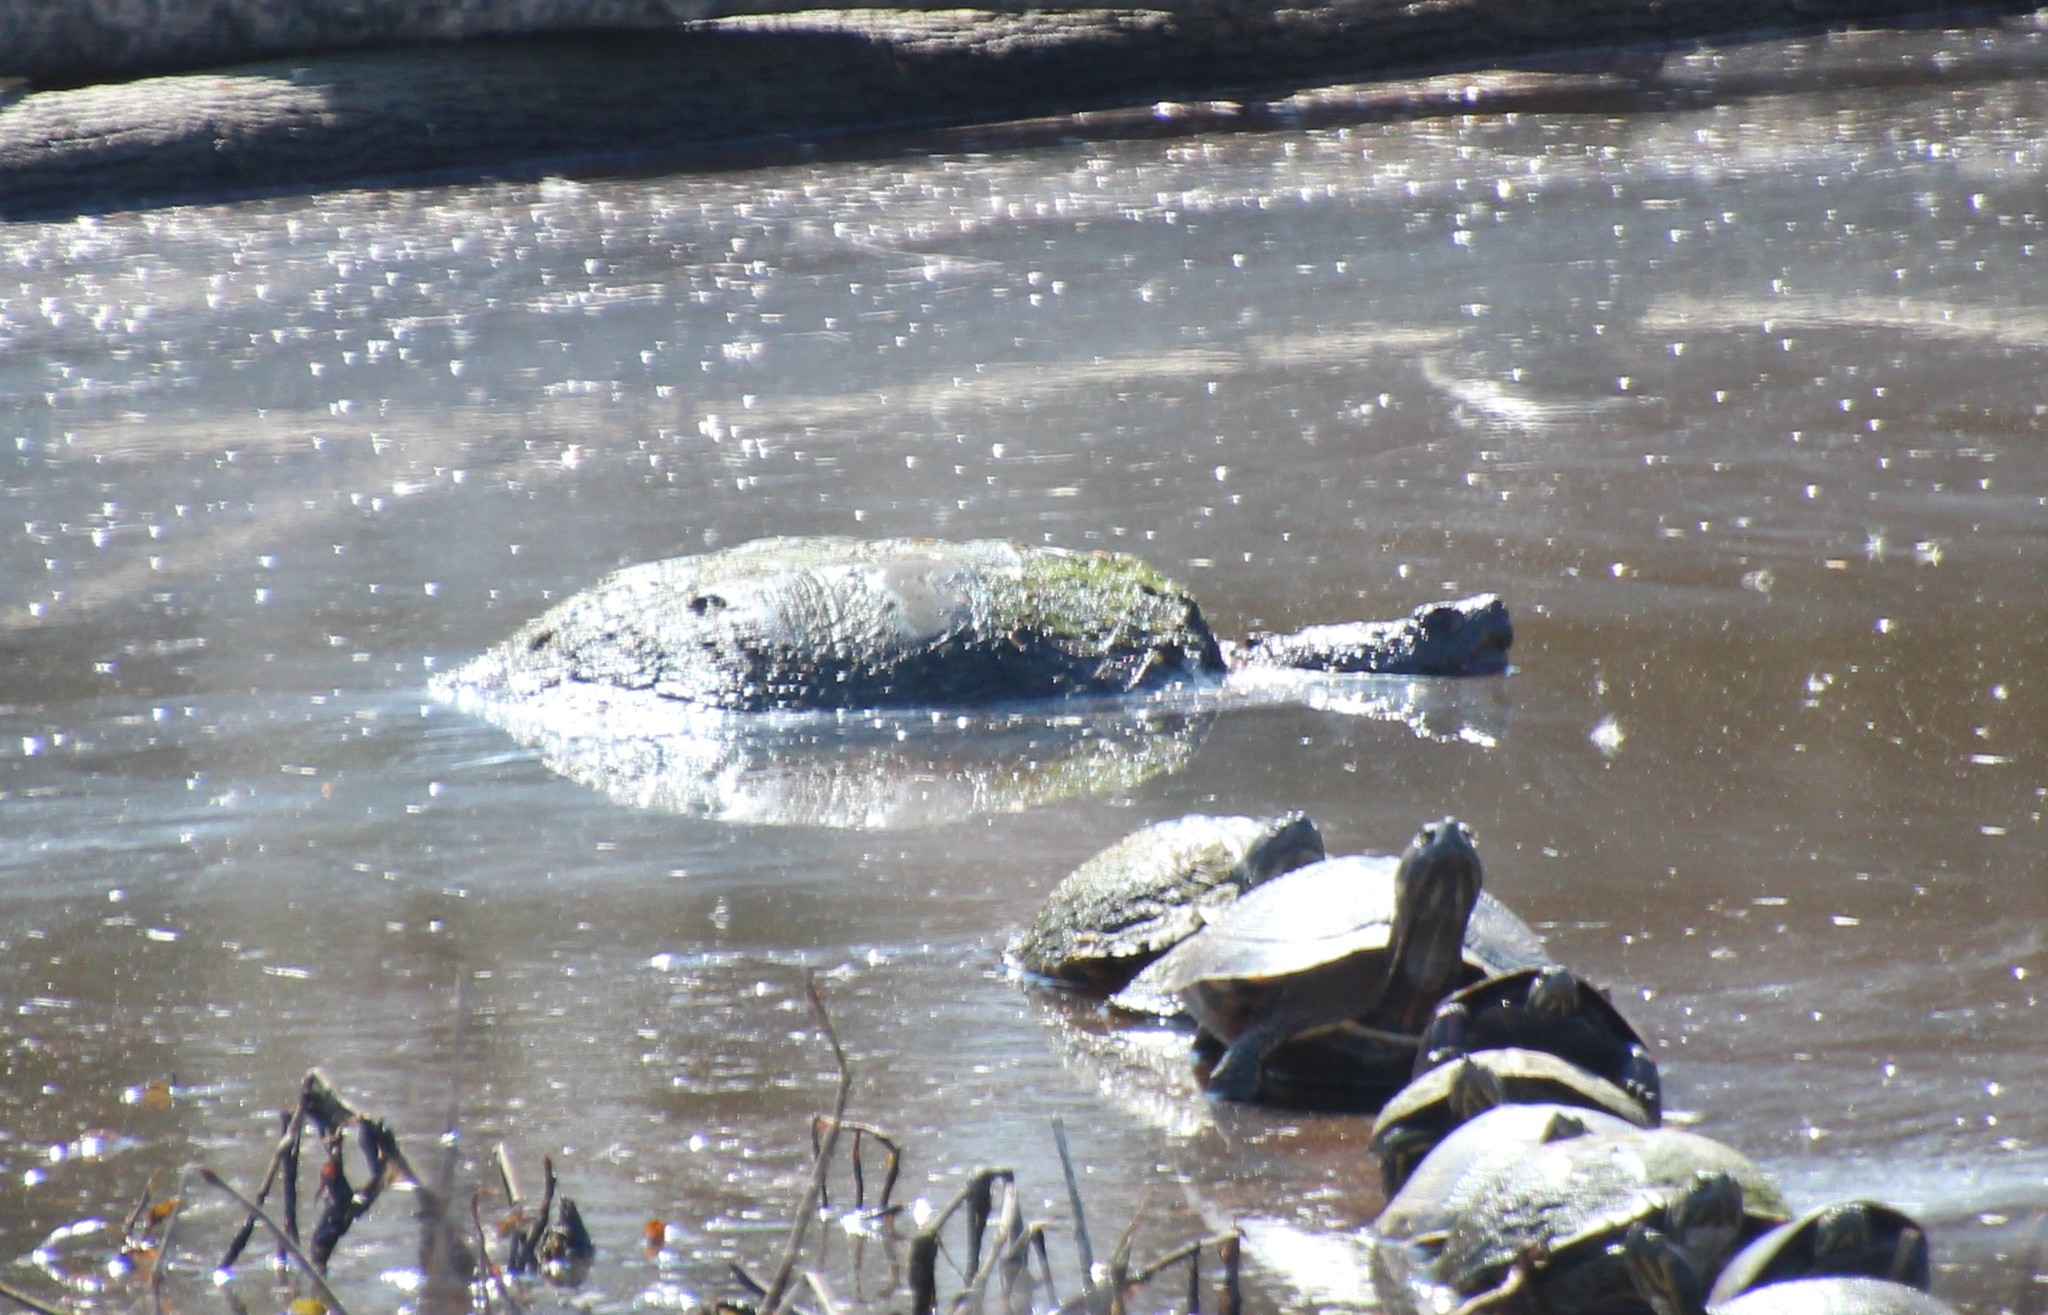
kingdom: Animalia
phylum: Chordata
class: Testudines
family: Chelydridae
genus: Chelydra
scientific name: Chelydra serpentina
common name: Common snapping turtle
